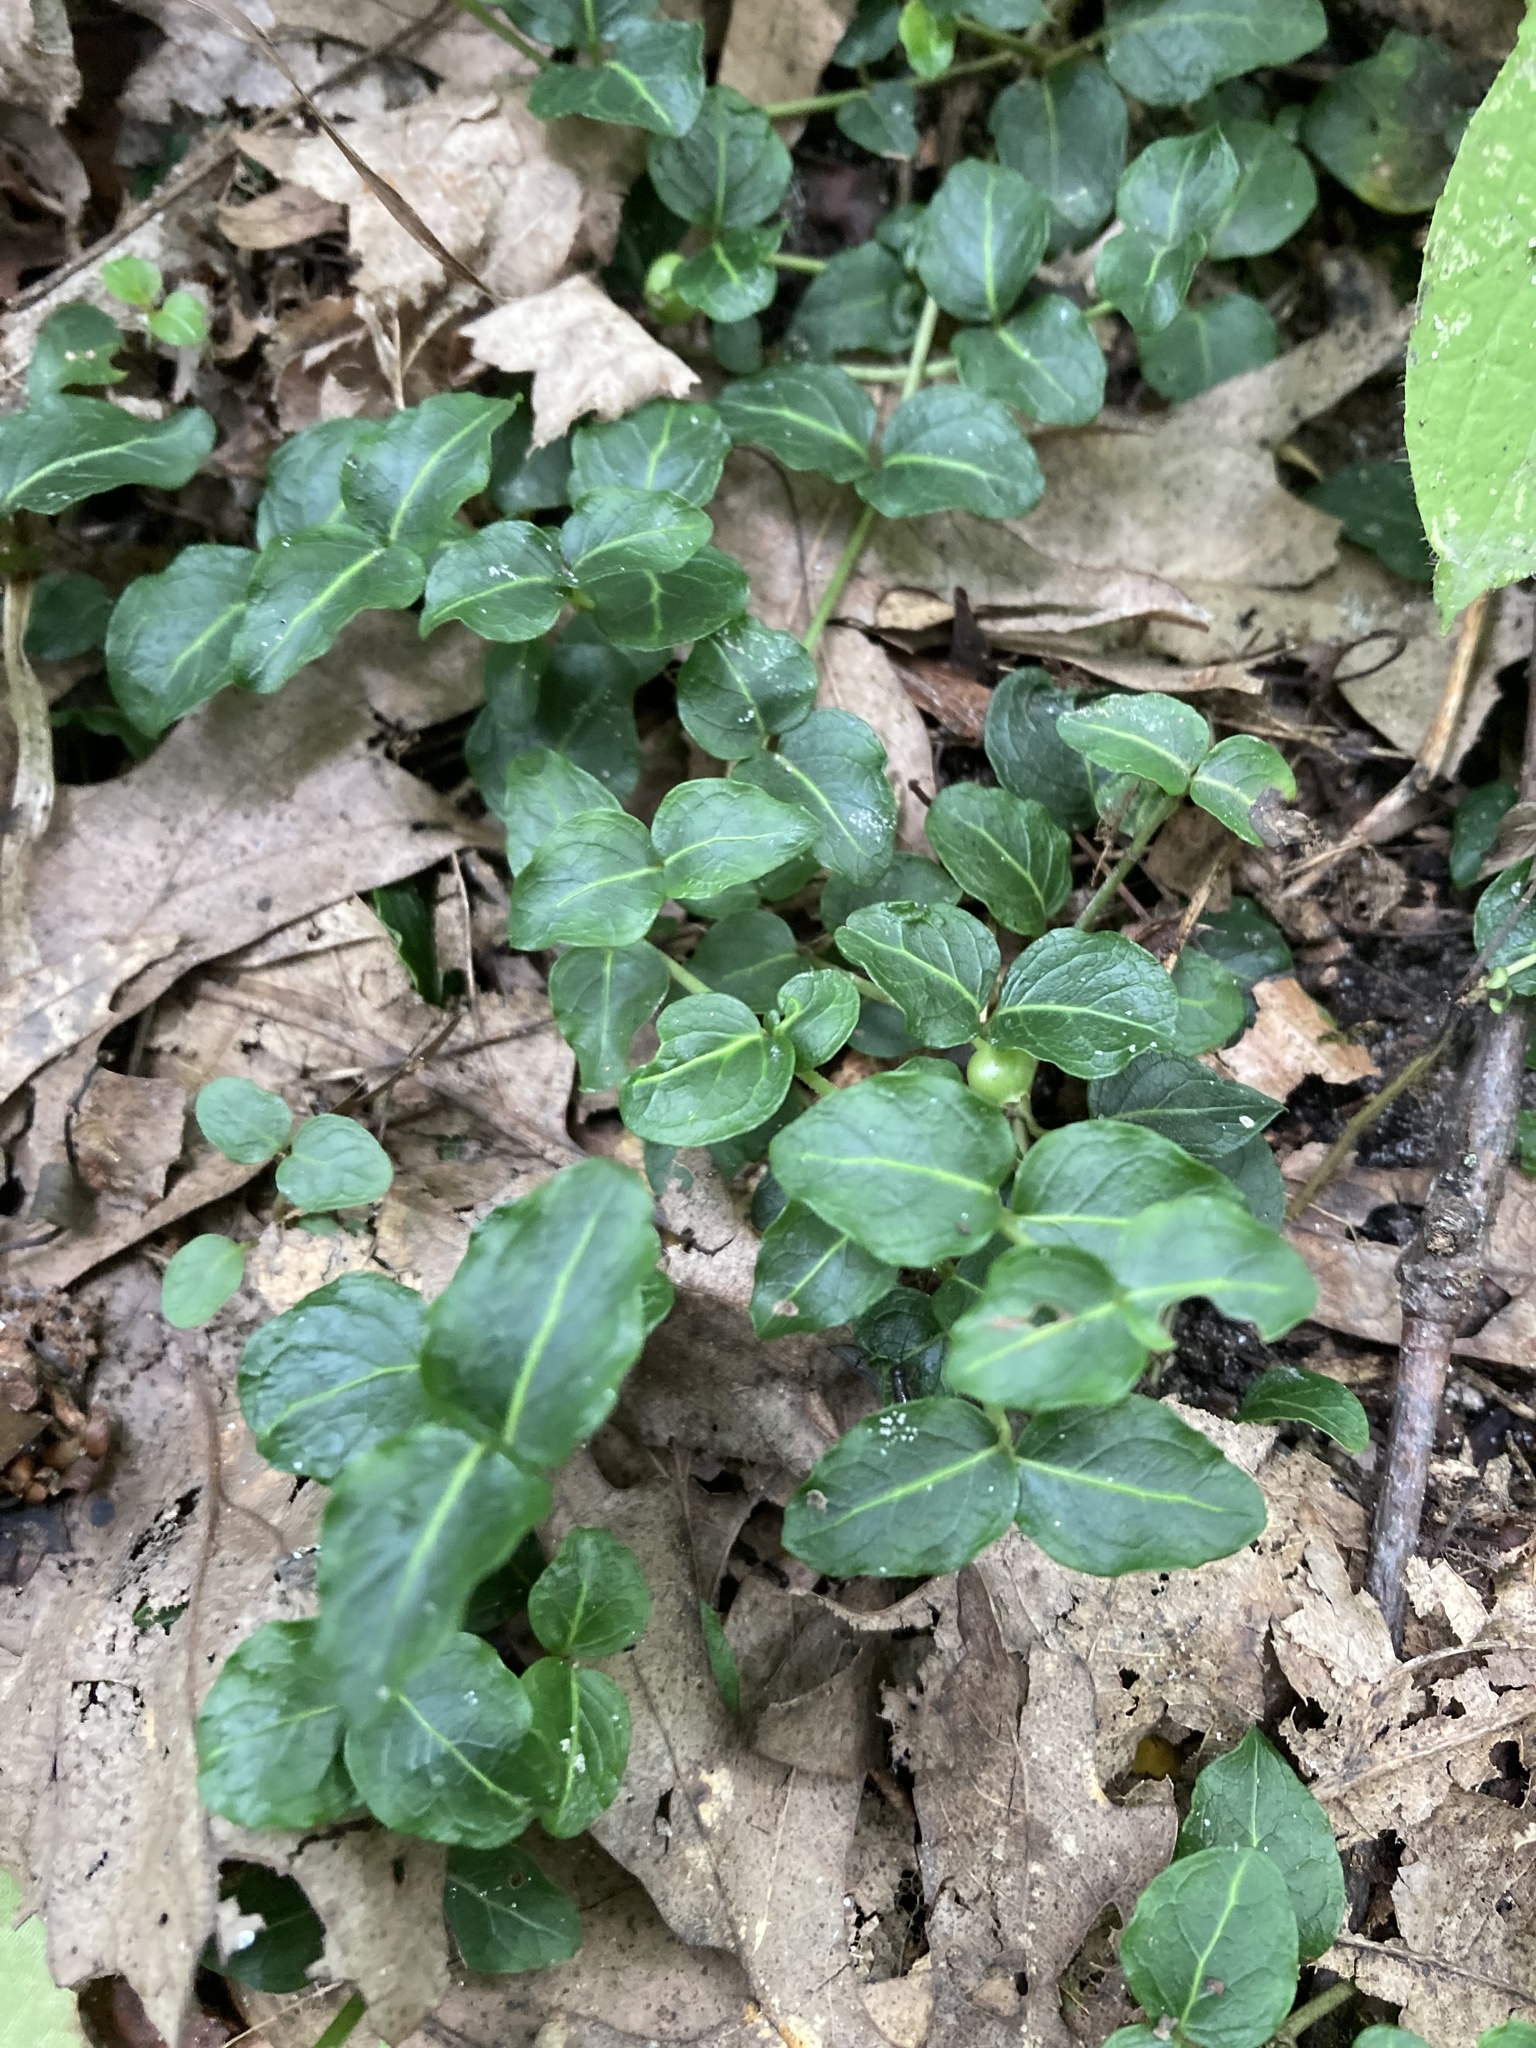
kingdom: Plantae
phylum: Tracheophyta
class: Magnoliopsida
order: Gentianales
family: Rubiaceae
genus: Mitchella
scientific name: Mitchella repens
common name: Partridge-berry
